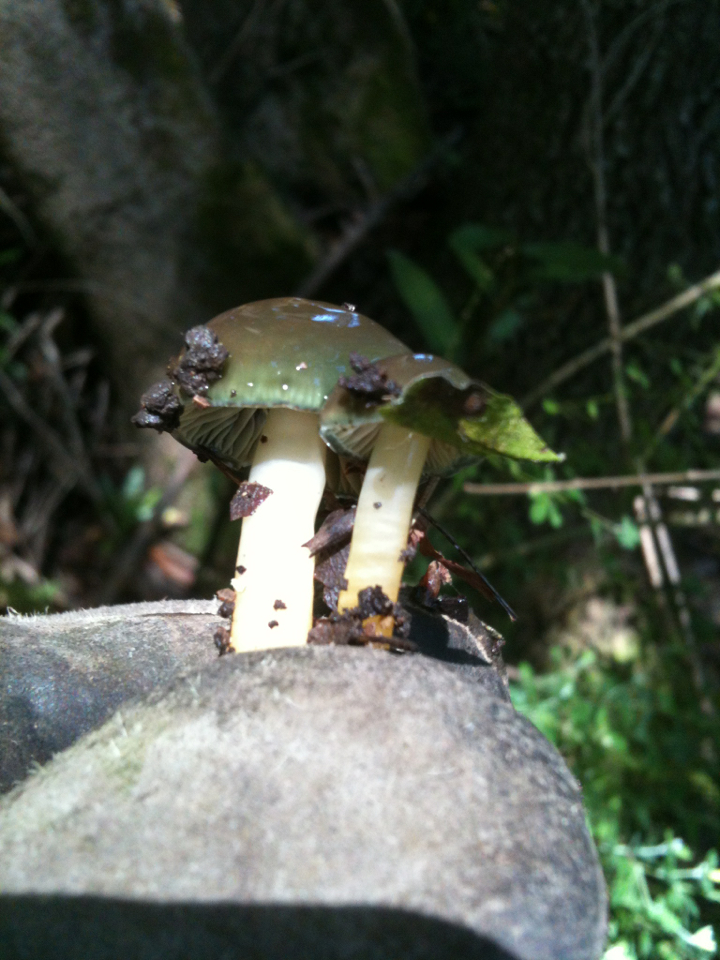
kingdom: Fungi
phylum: Basidiomycota
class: Agaricomycetes
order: Agaricales
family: Hygrophoraceae
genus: Gliophorus
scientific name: Gliophorus psittacinus
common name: Parrot wax-cap
